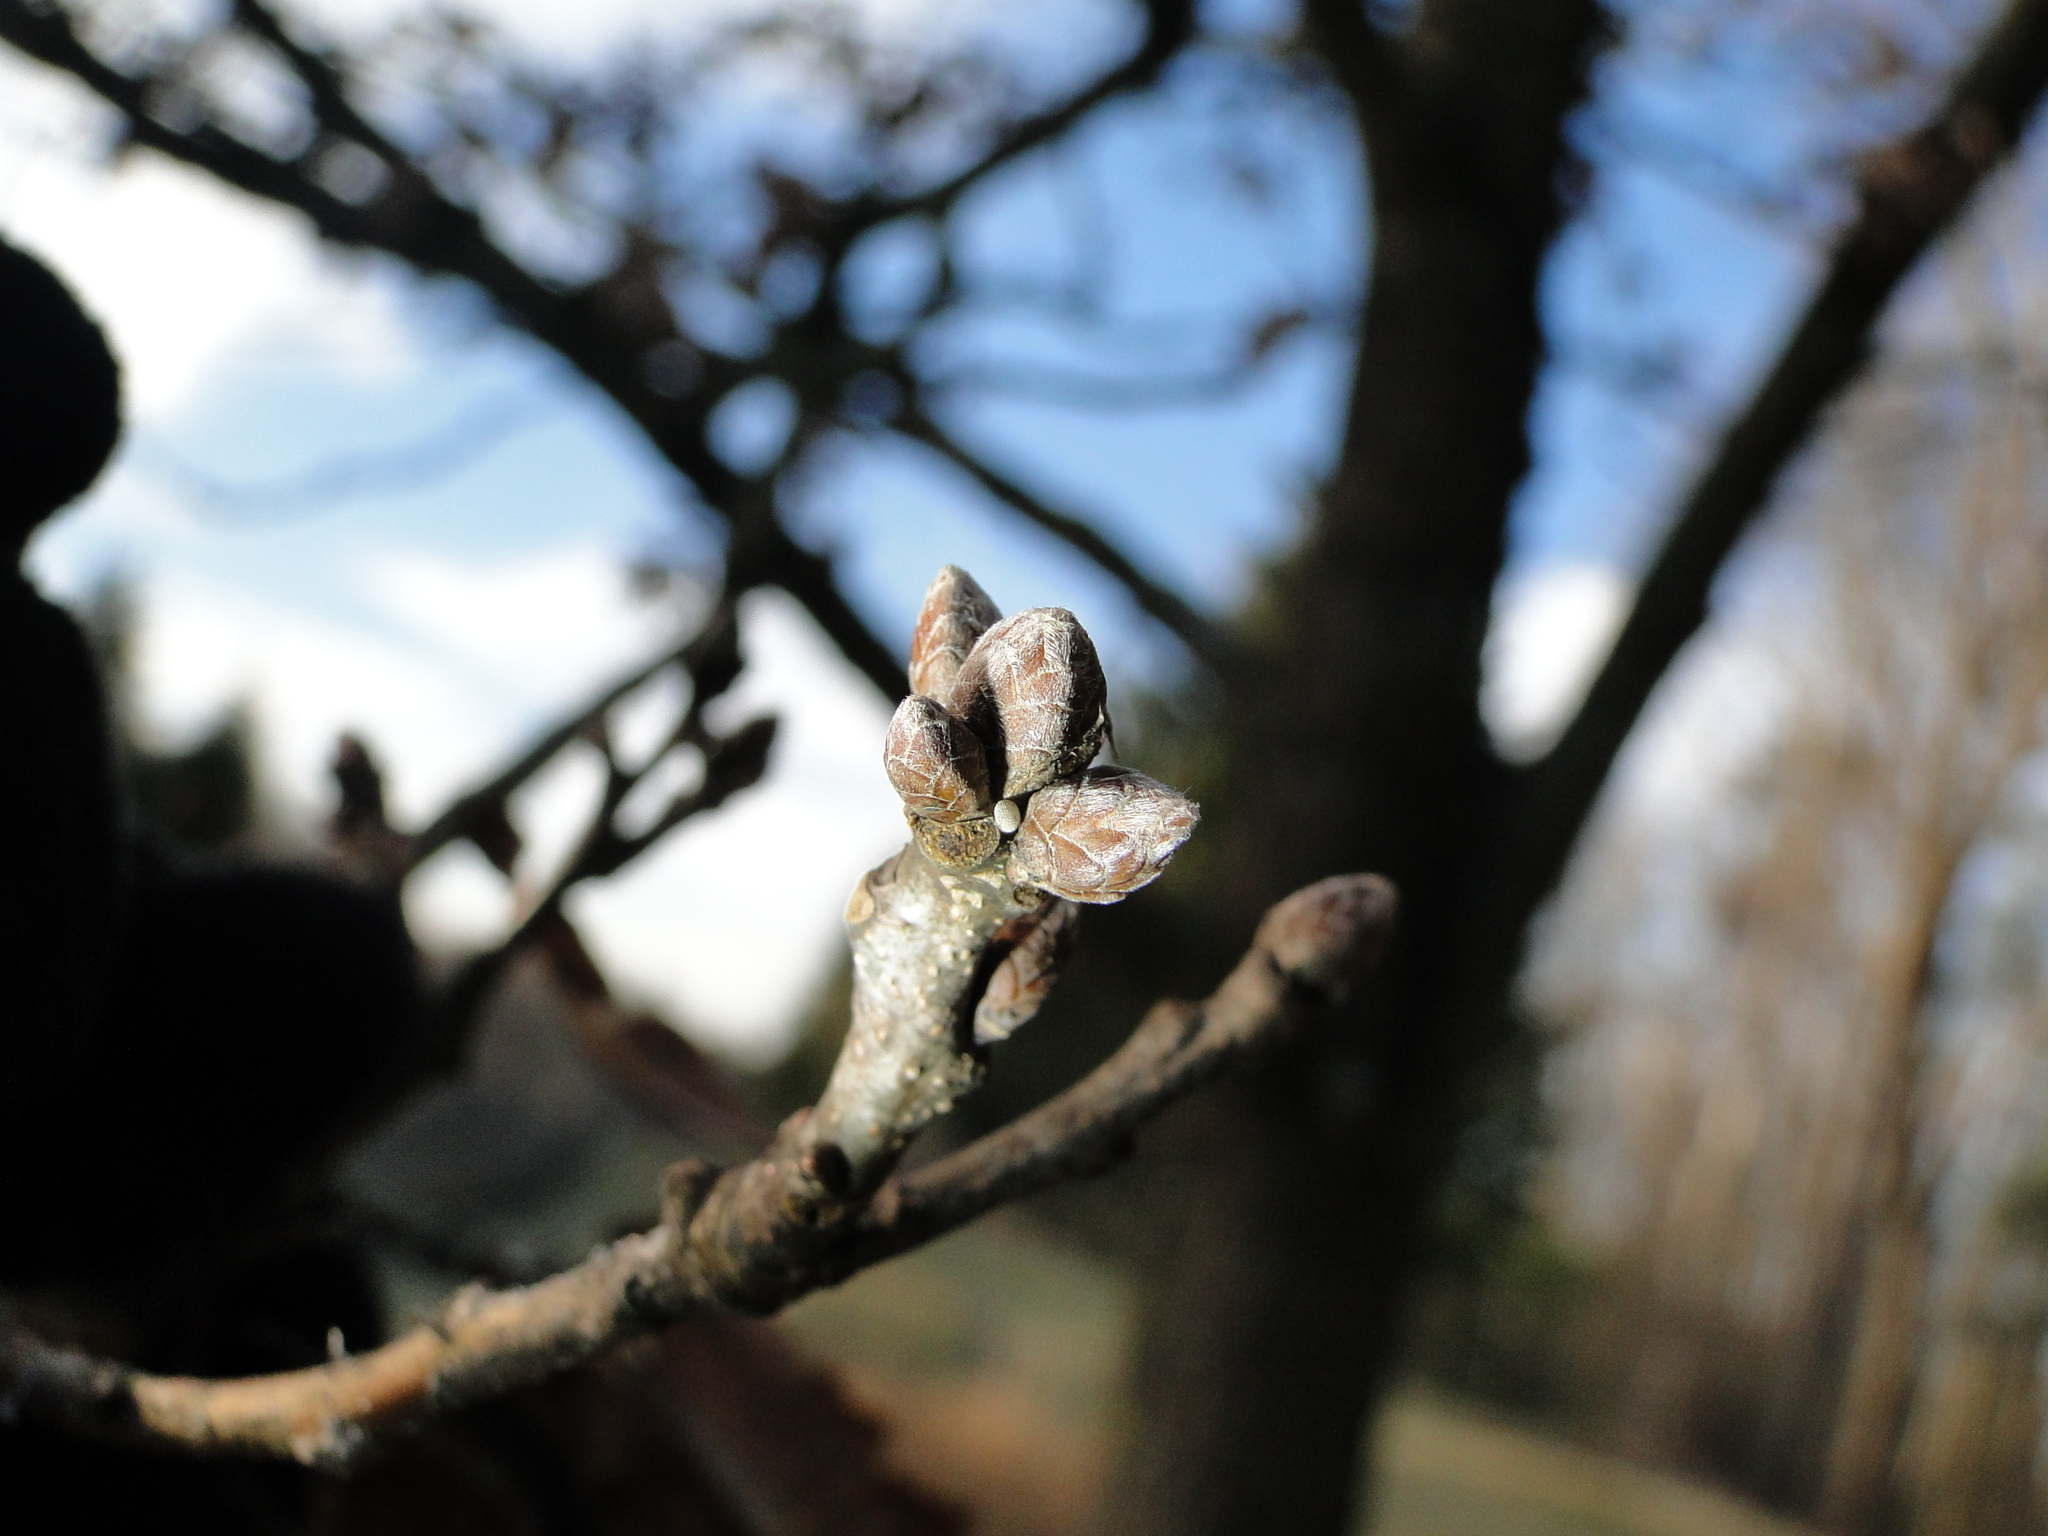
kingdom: Animalia
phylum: Arthropoda
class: Insecta
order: Lepidoptera
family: Lycaenidae
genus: Quercusia
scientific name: Quercusia quercus
